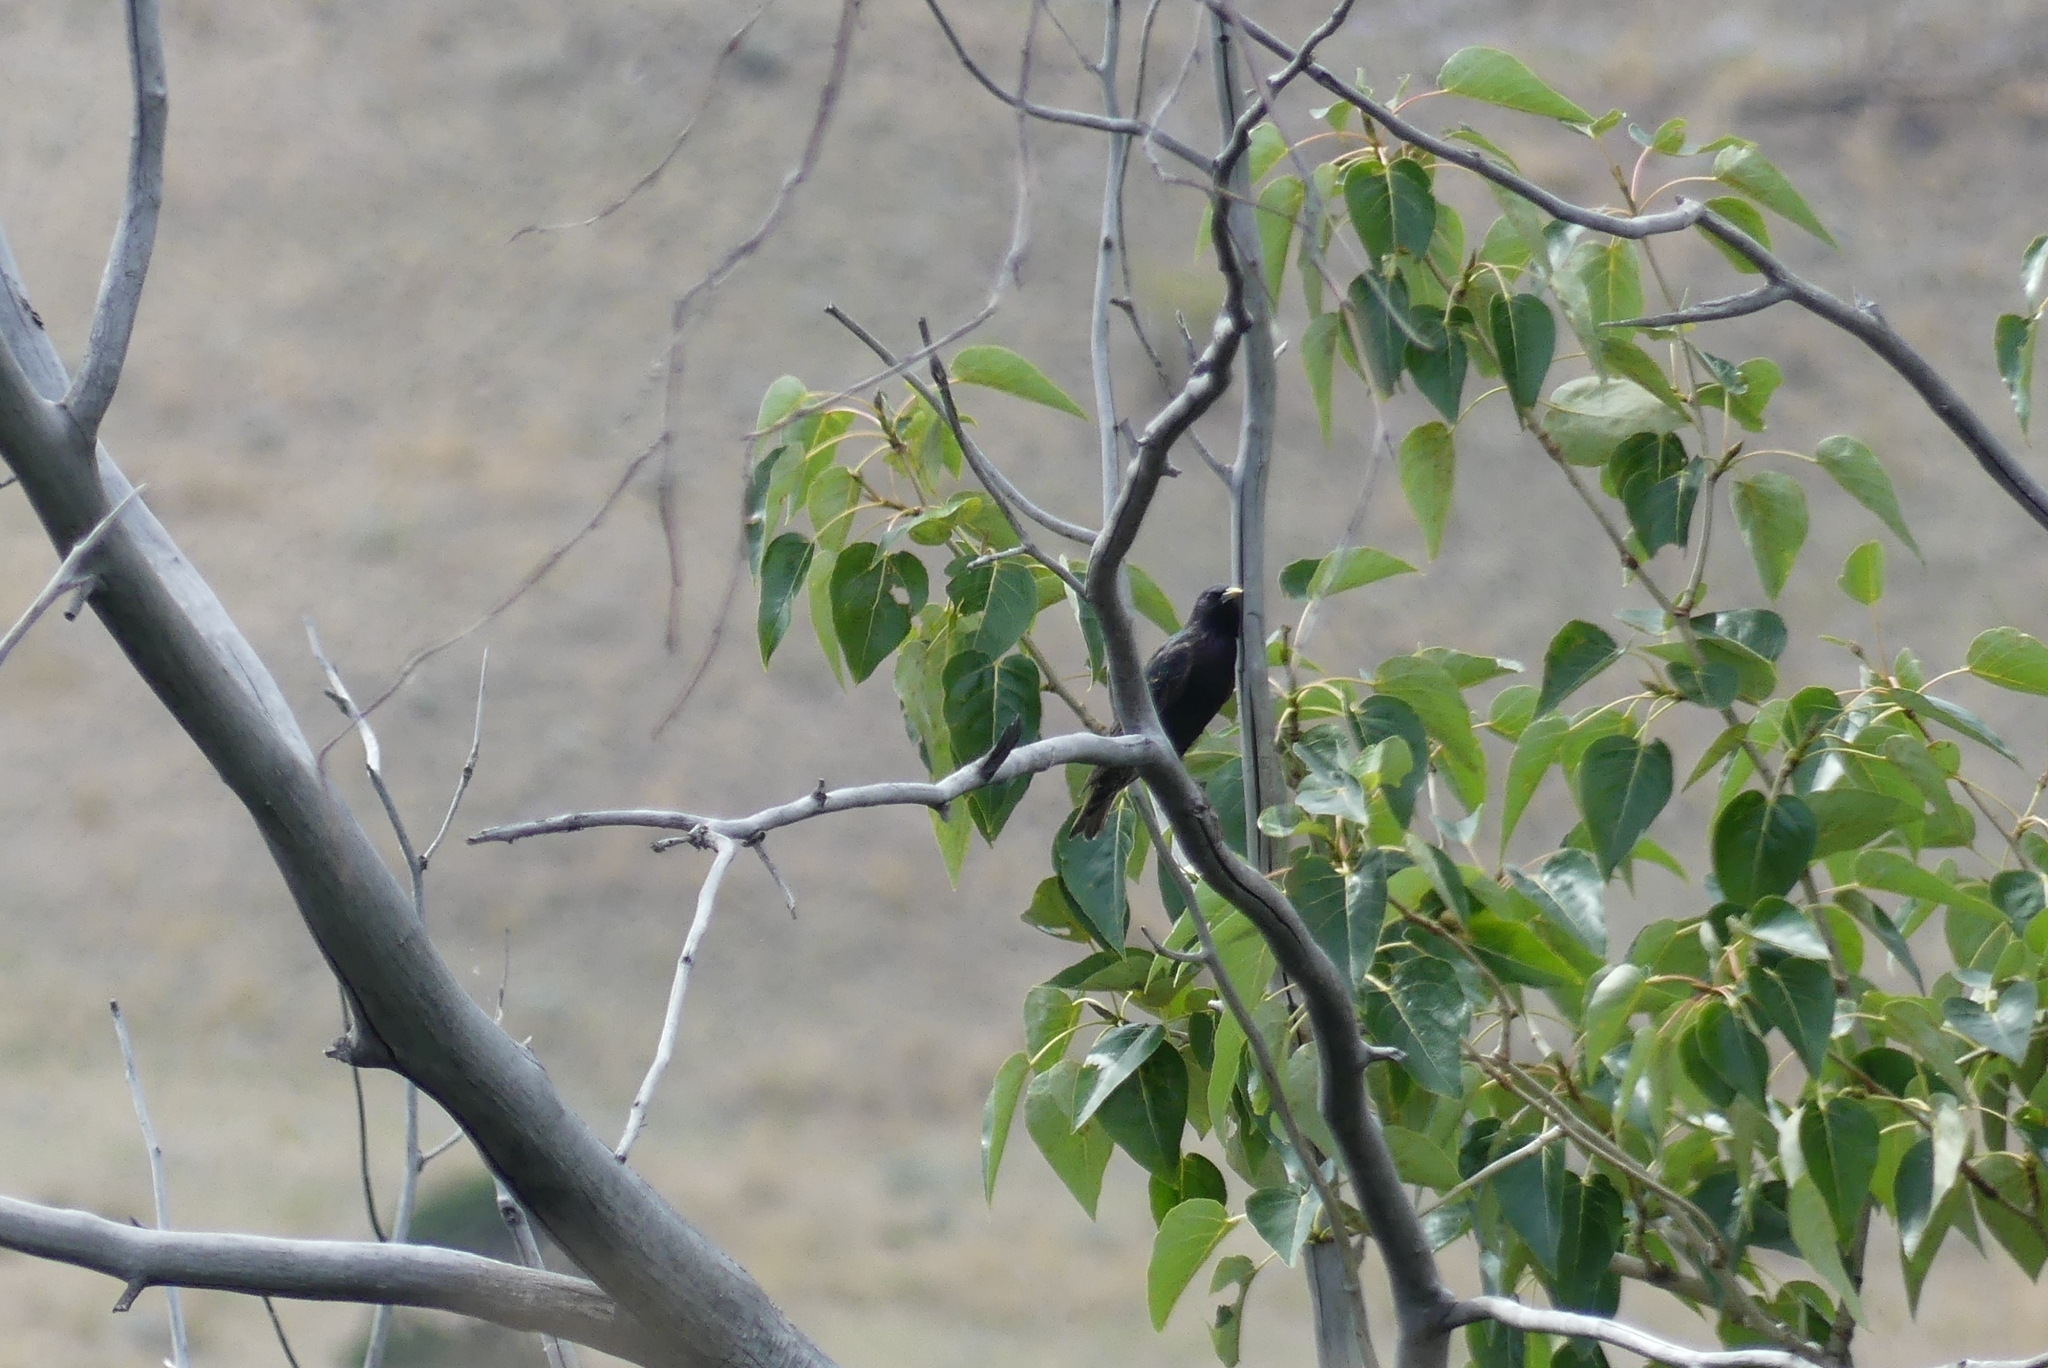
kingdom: Animalia
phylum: Chordata
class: Aves
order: Passeriformes
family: Sturnidae
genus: Sturnus
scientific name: Sturnus vulgaris
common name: Common starling
